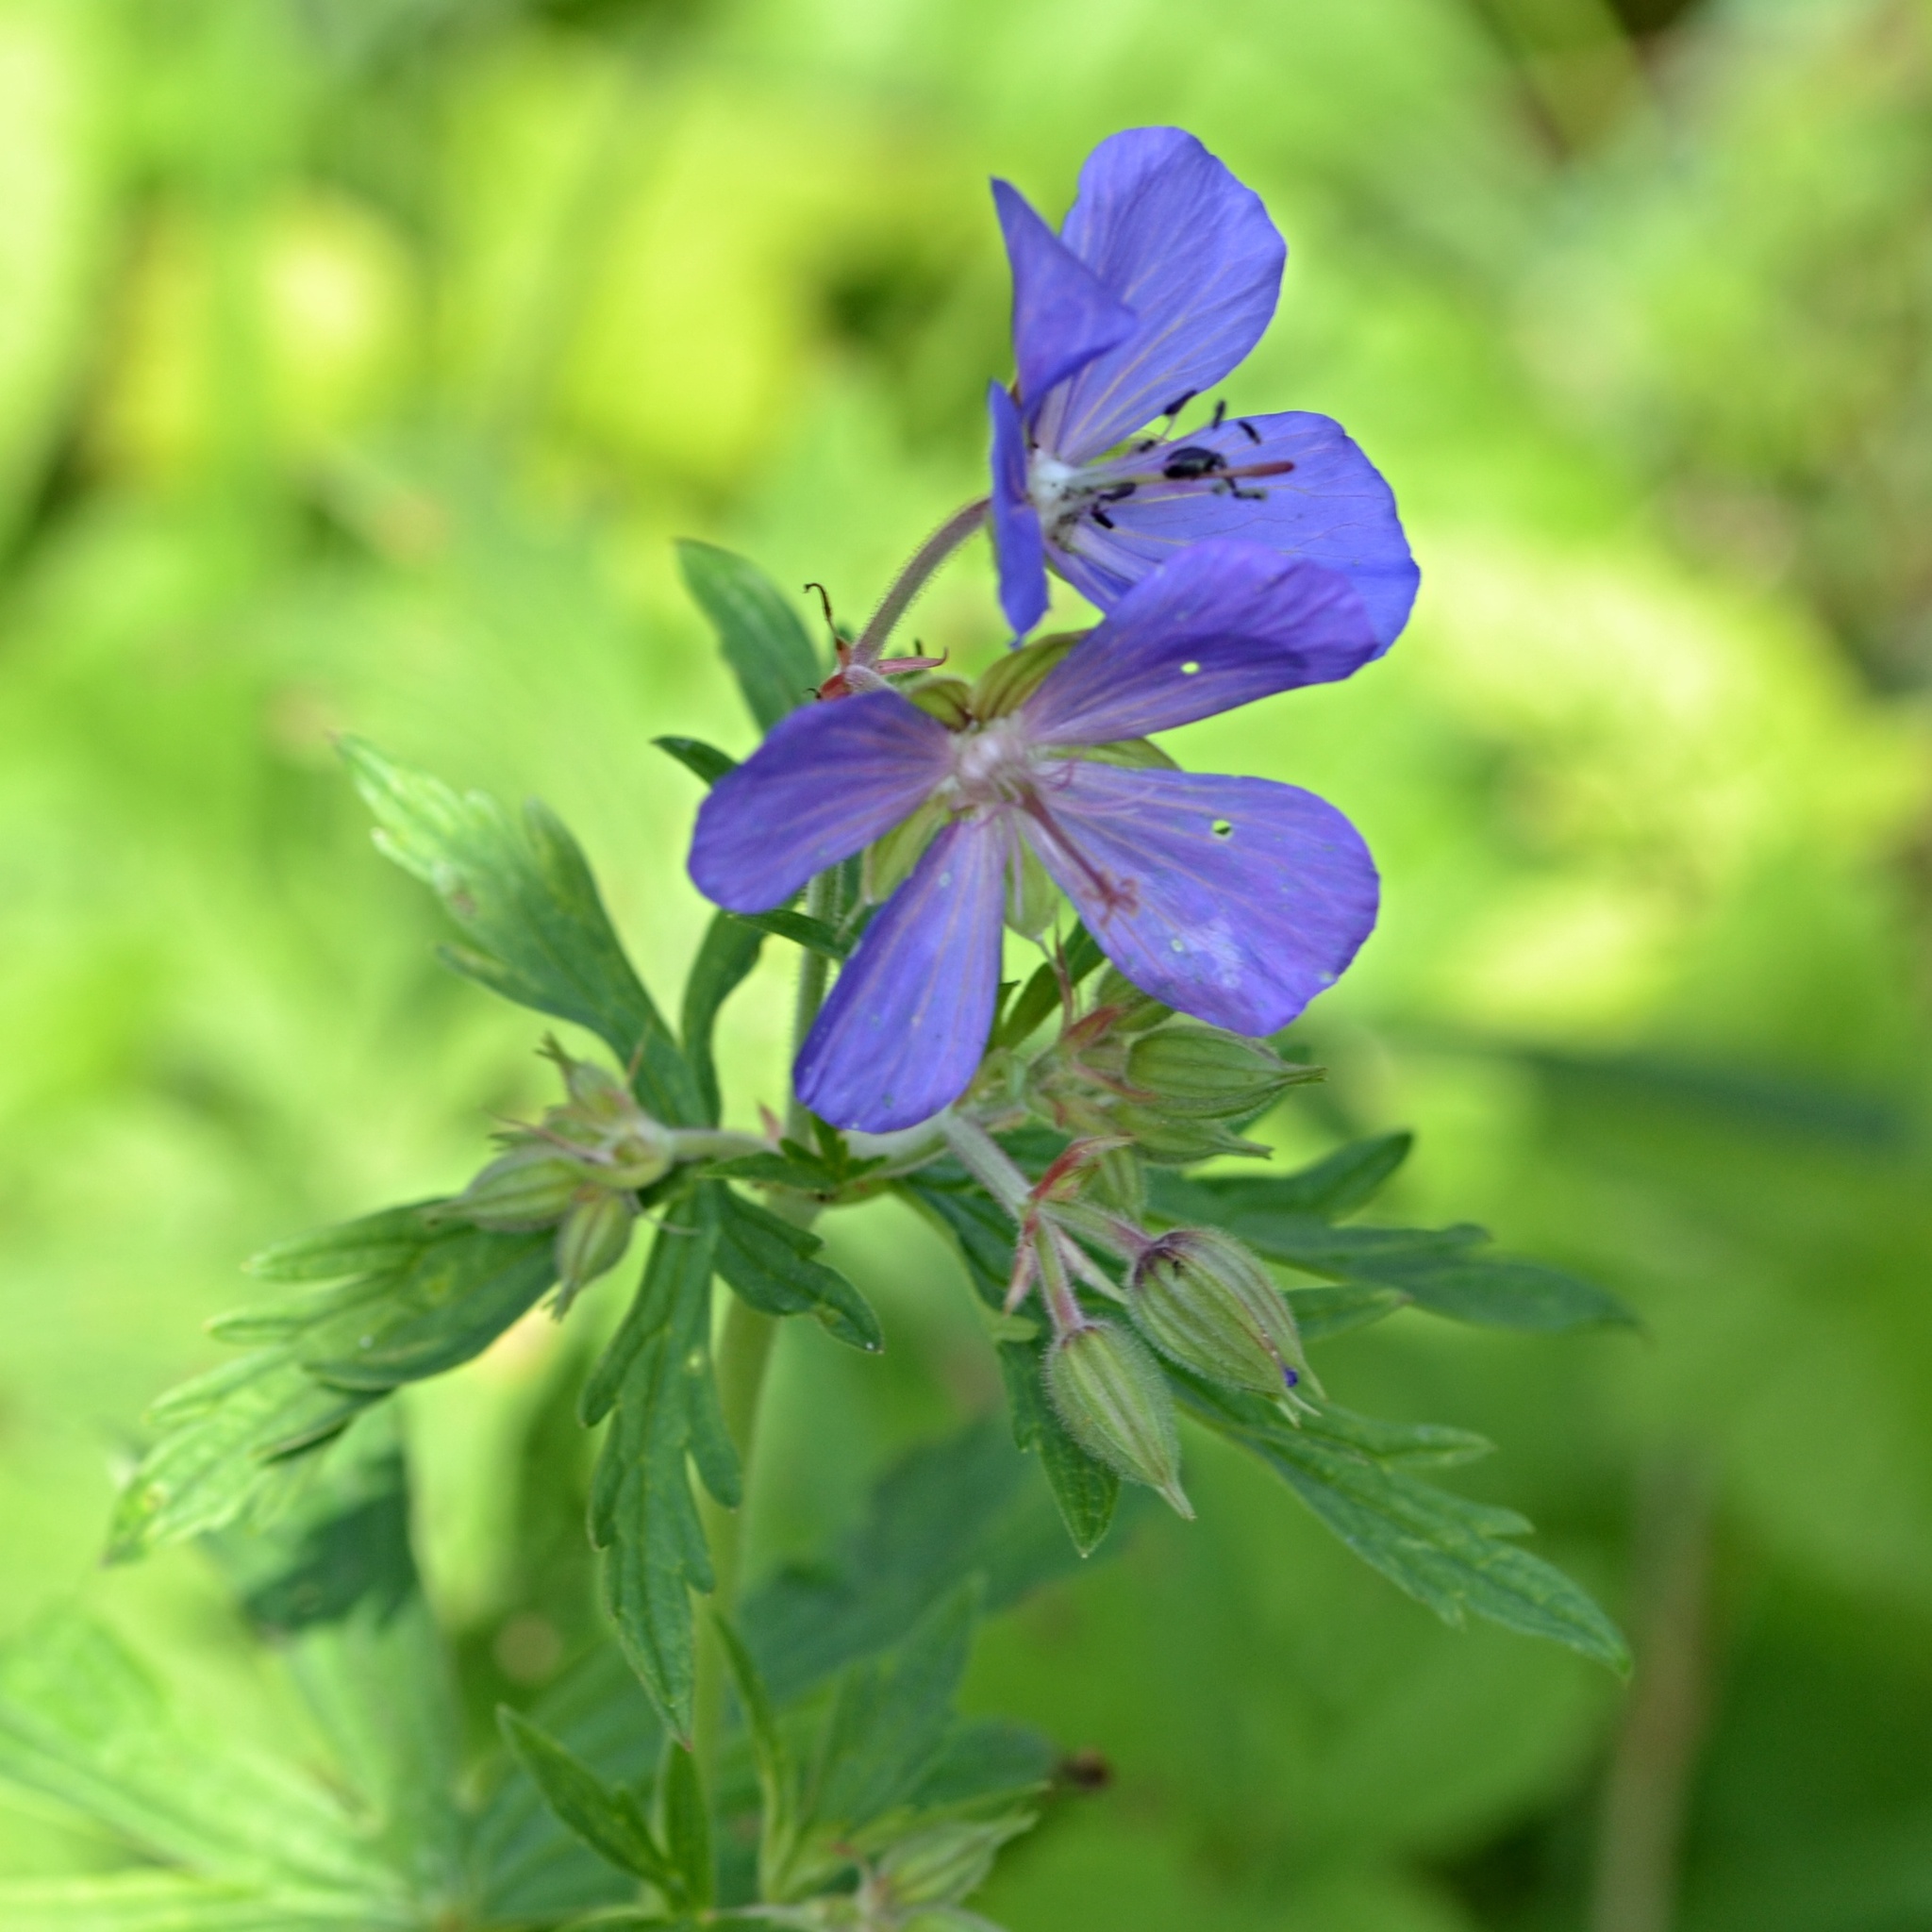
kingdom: Plantae
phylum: Tracheophyta
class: Magnoliopsida
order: Geraniales
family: Geraniaceae
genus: Geranium
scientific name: Geranium pratense
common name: Meadow crane's-bill
